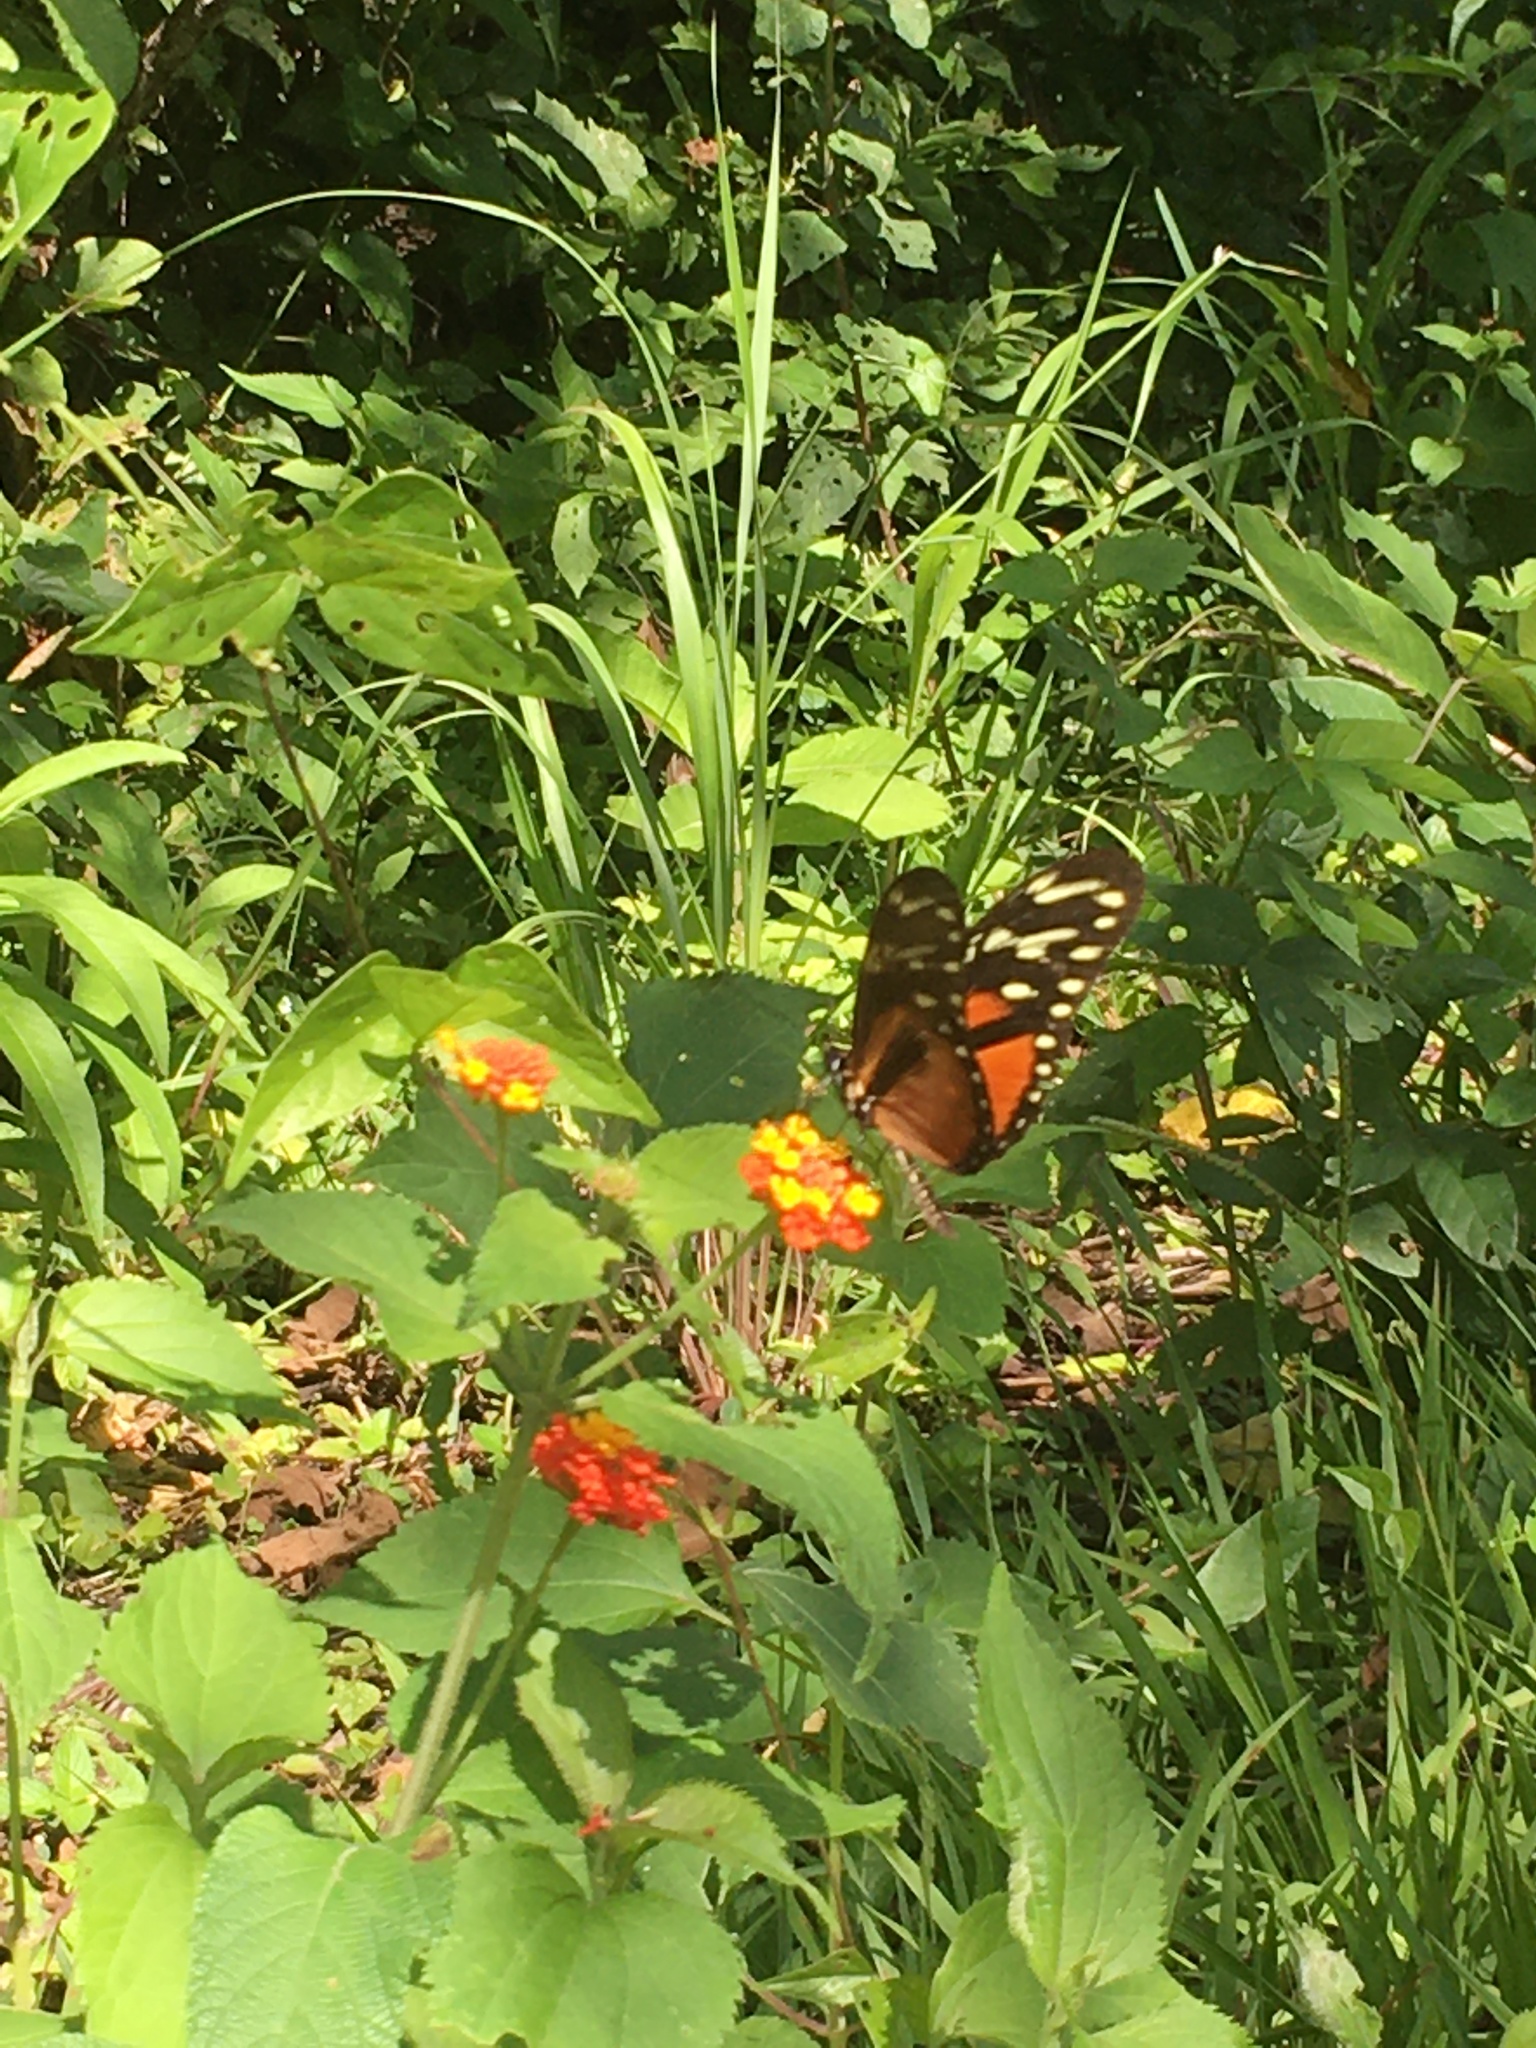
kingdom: Animalia
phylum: Arthropoda
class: Insecta
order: Lepidoptera
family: Nymphalidae
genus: Heliconius
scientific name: Heliconius hecalesia
